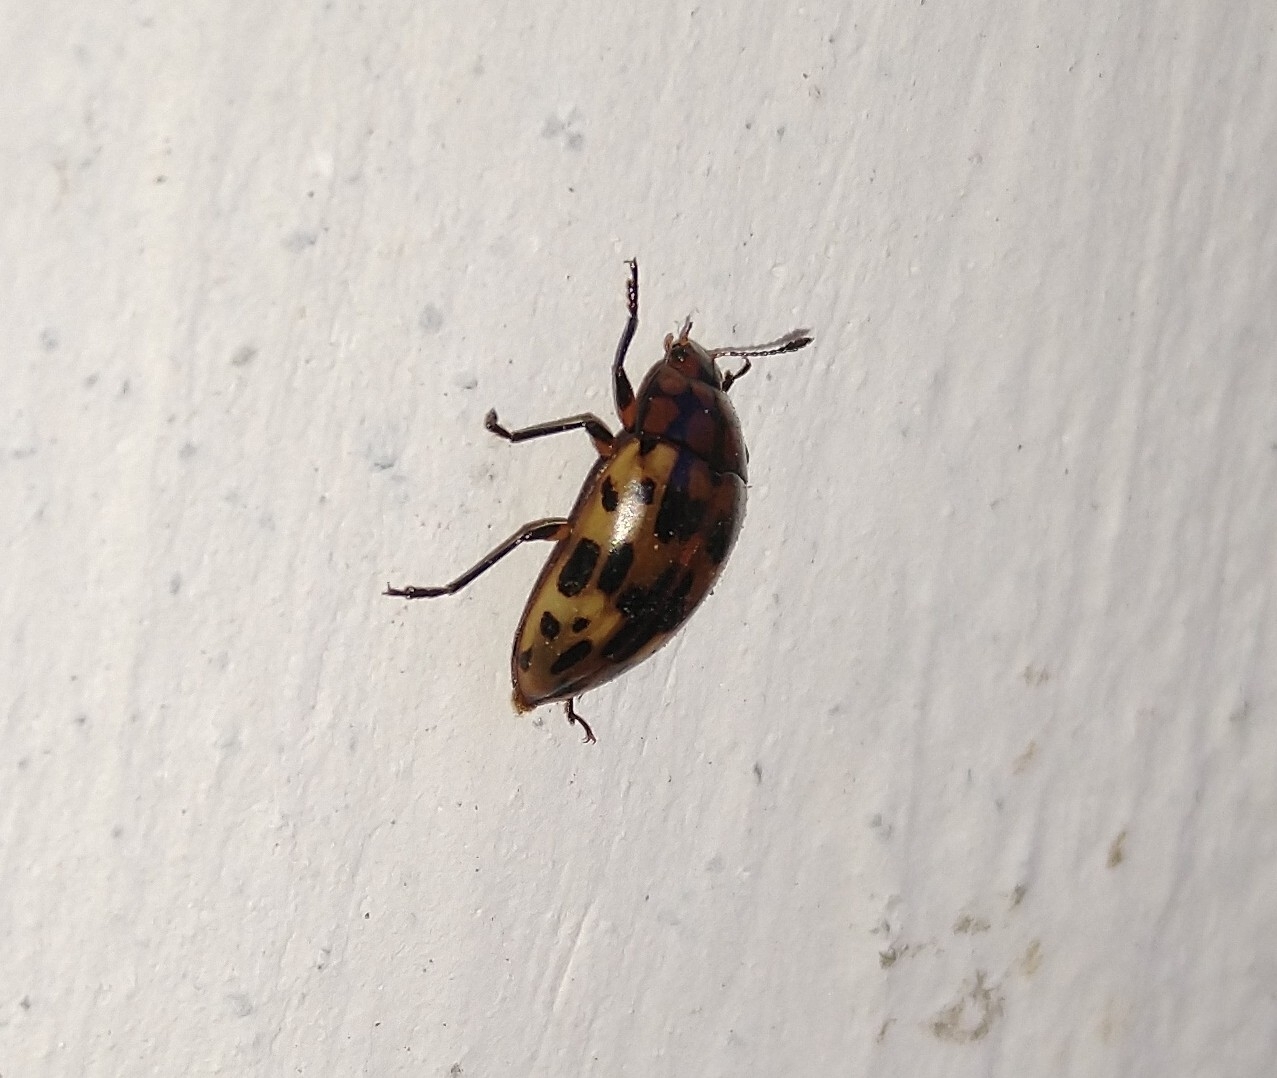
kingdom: Animalia
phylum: Arthropoda
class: Insecta
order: Coleoptera
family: Erotylidae
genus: Iphiclus
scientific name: Iphiclus
